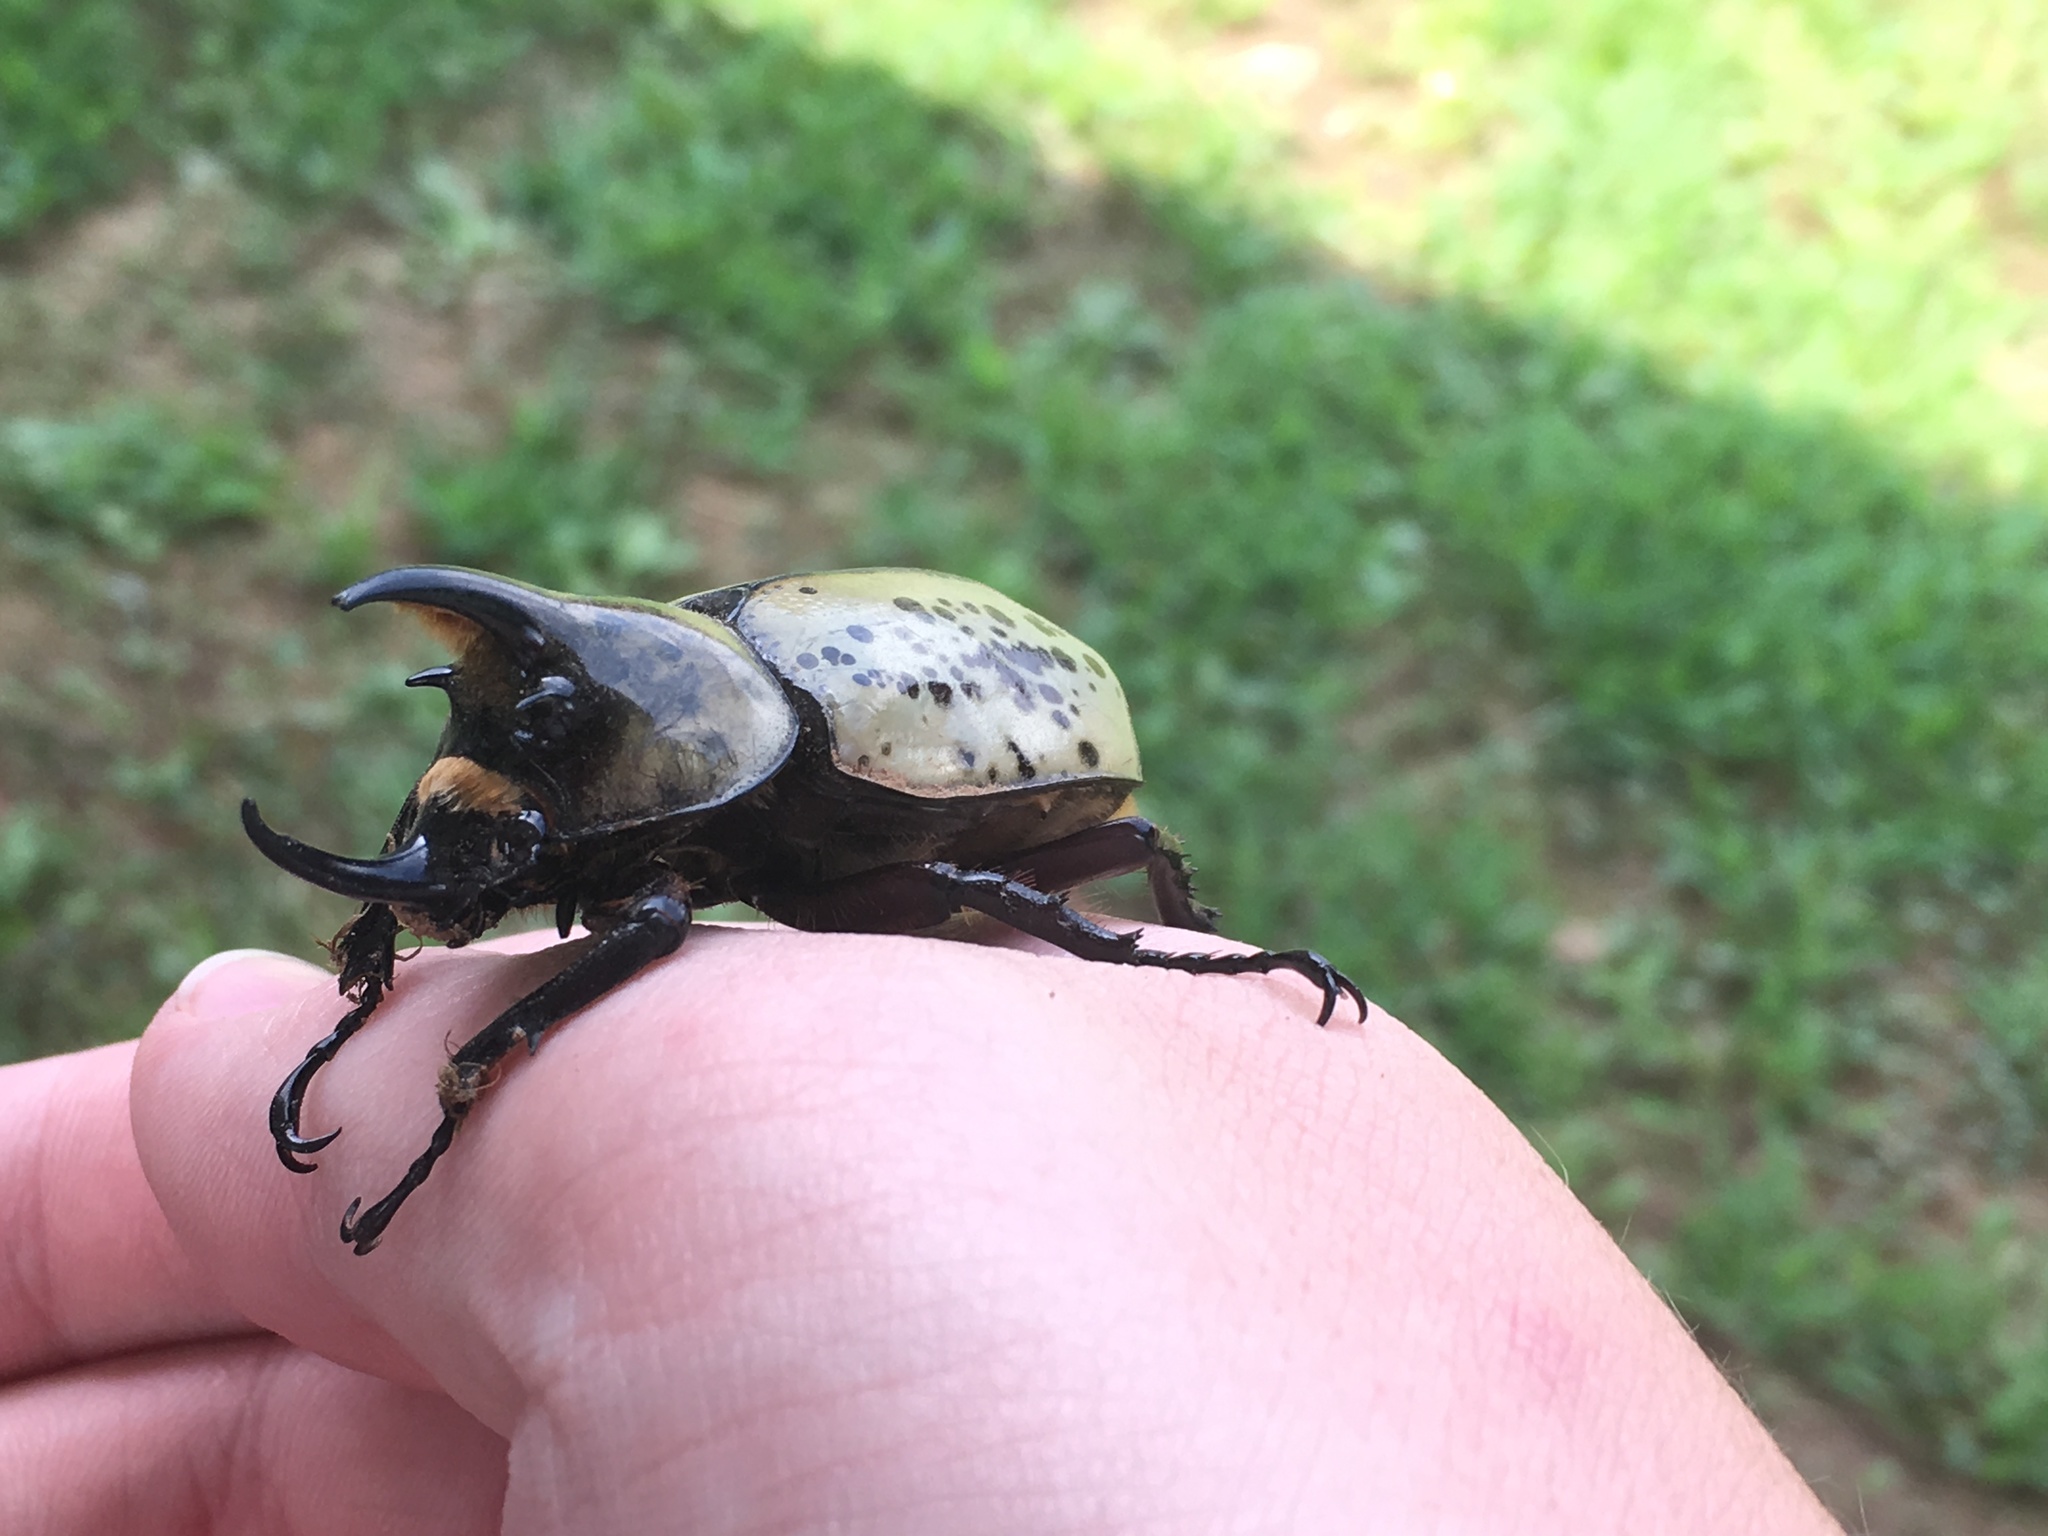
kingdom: Animalia
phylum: Arthropoda
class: Insecta
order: Coleoptera
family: Scarabaeidae
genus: Dynastes
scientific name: Dynastes tityus
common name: Eastern hercules beetle
